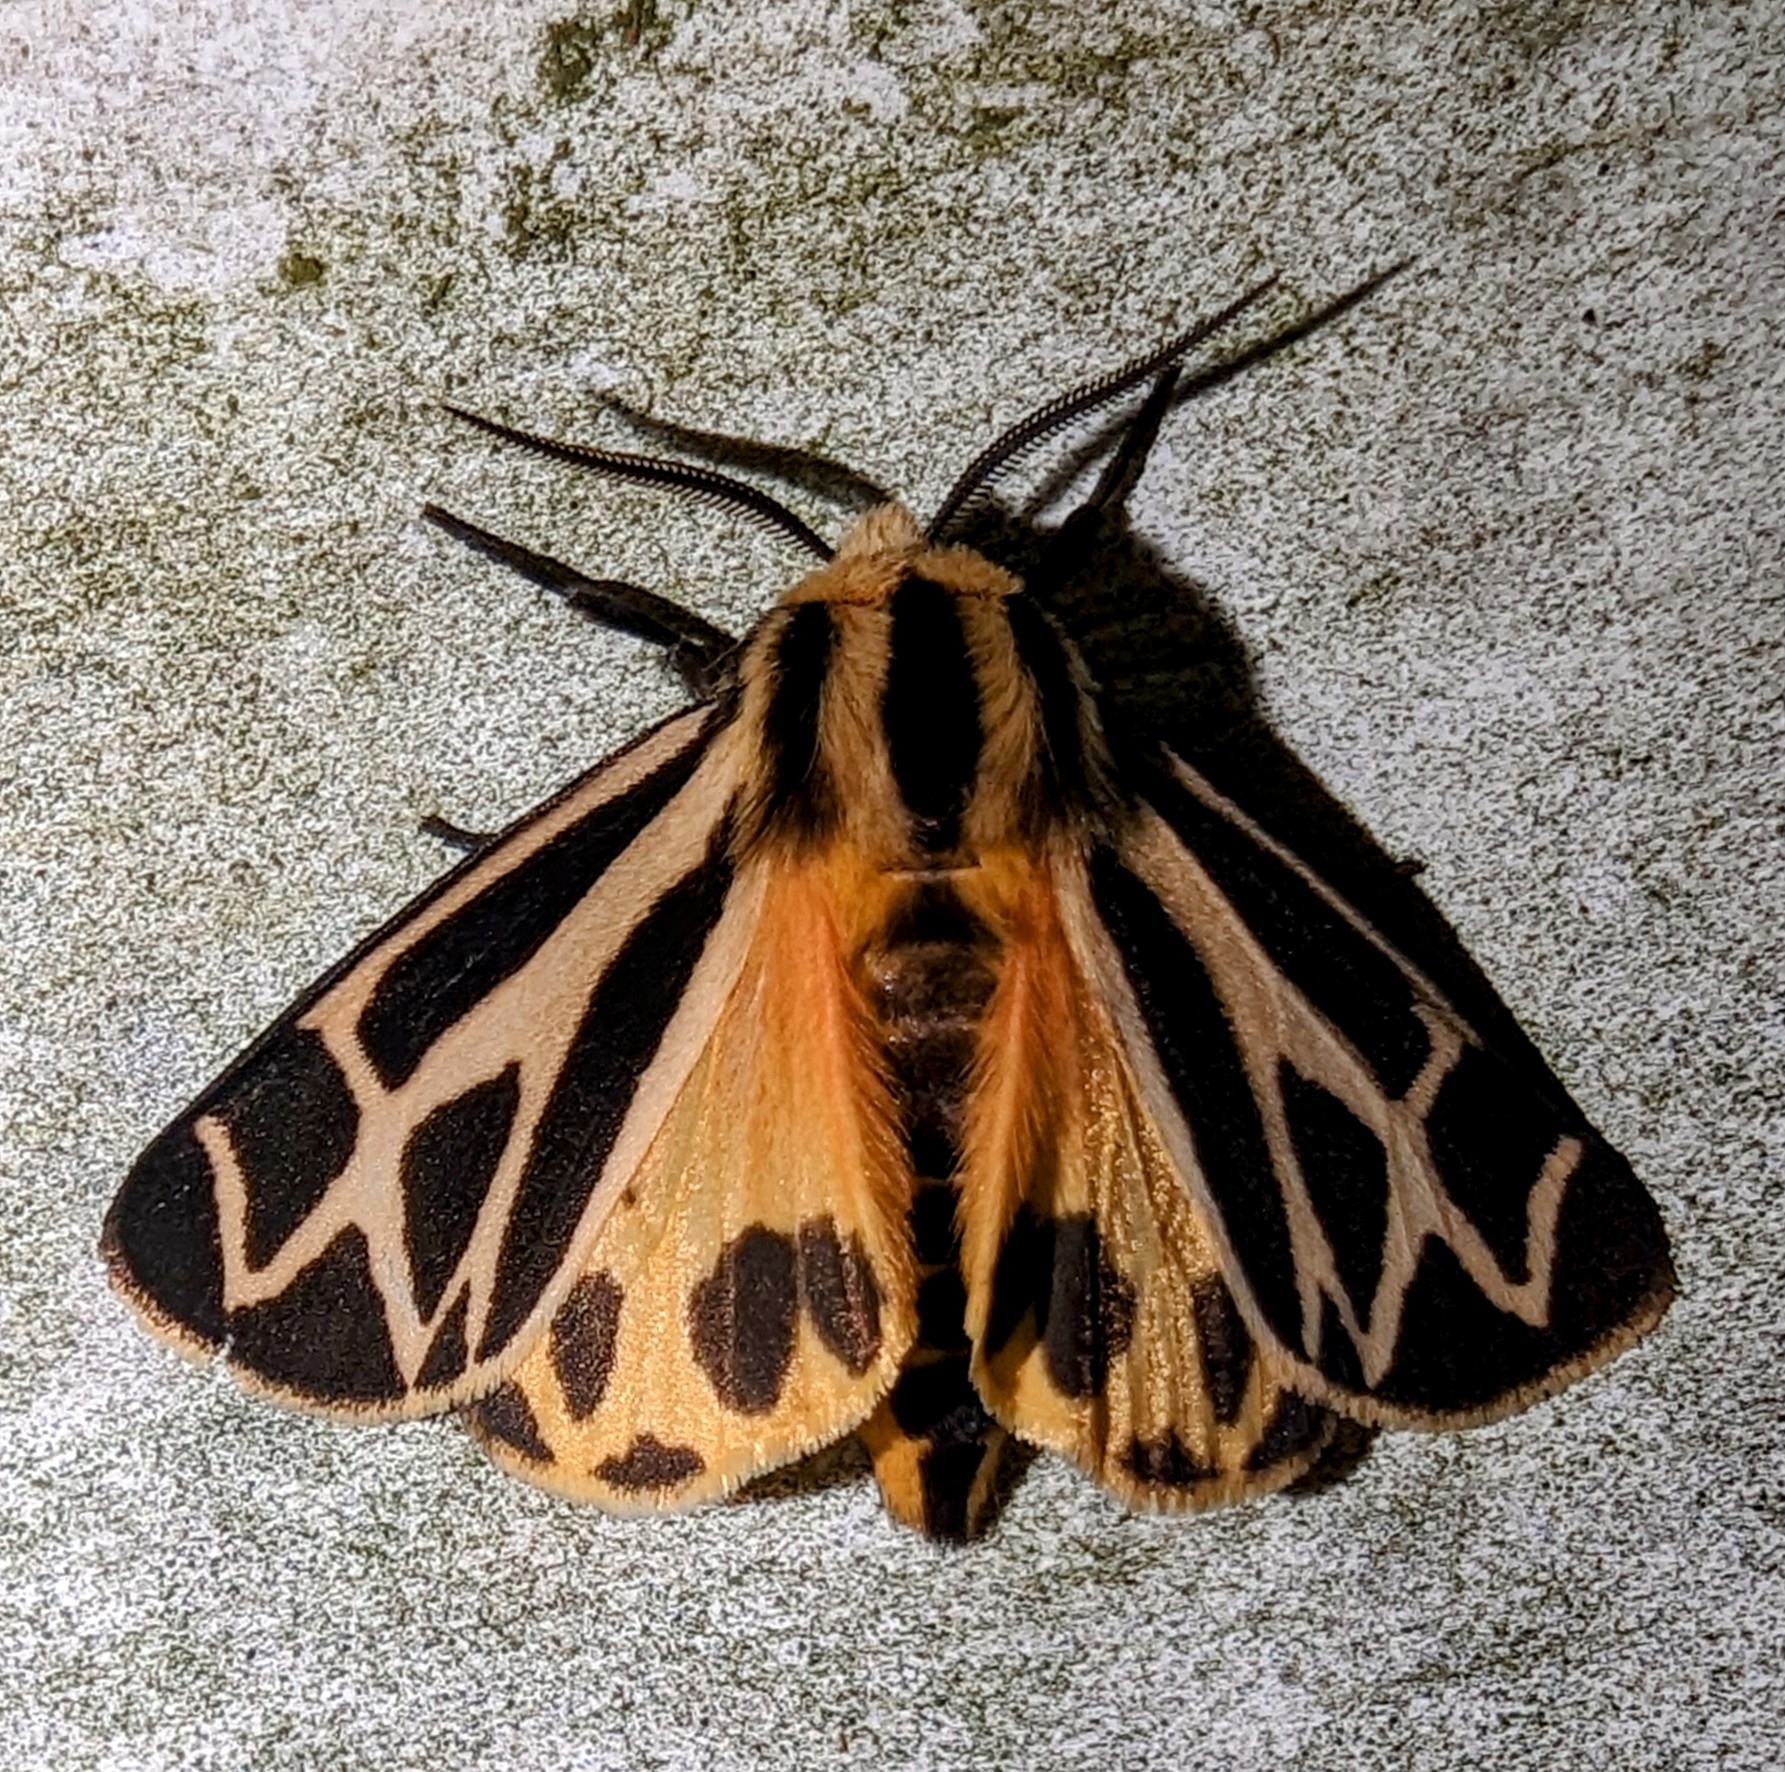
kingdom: Animalia
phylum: Arthropoda
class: Insecta
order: Lepidoptera
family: Erebidae
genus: Apantesis
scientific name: Apantesis phalerata
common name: Harnessed tiger moth
